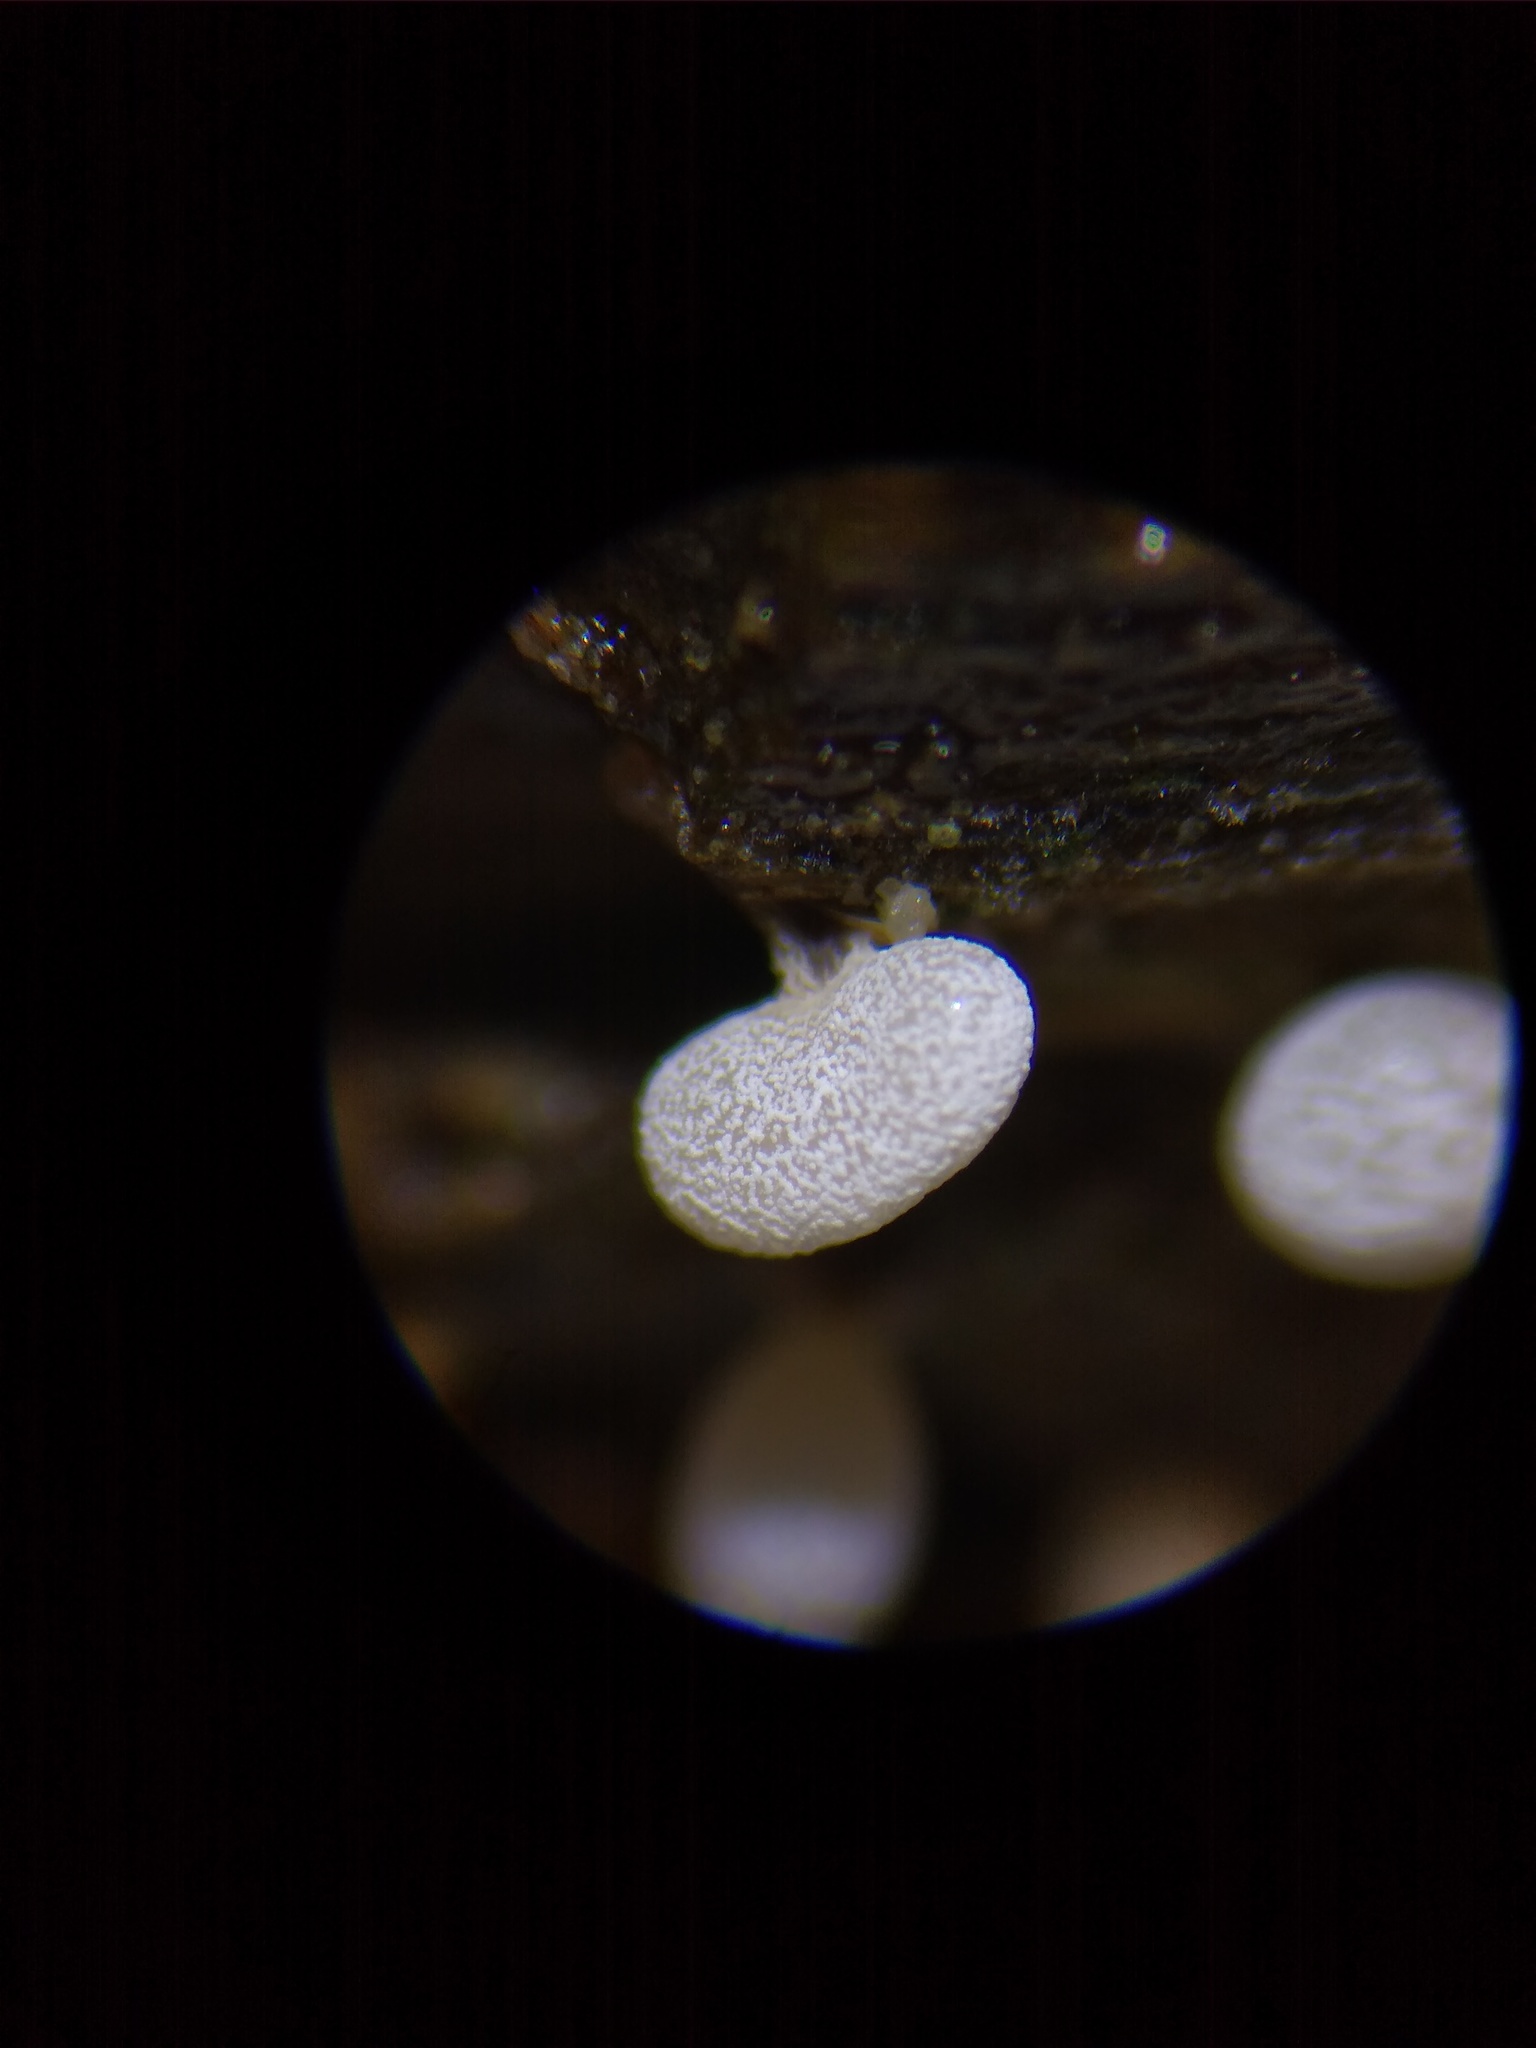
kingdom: Protozoa
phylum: Mycetozoa
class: Myxomycetes
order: Physarales
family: Physaraceae
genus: Physarum
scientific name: Physarum compressum
